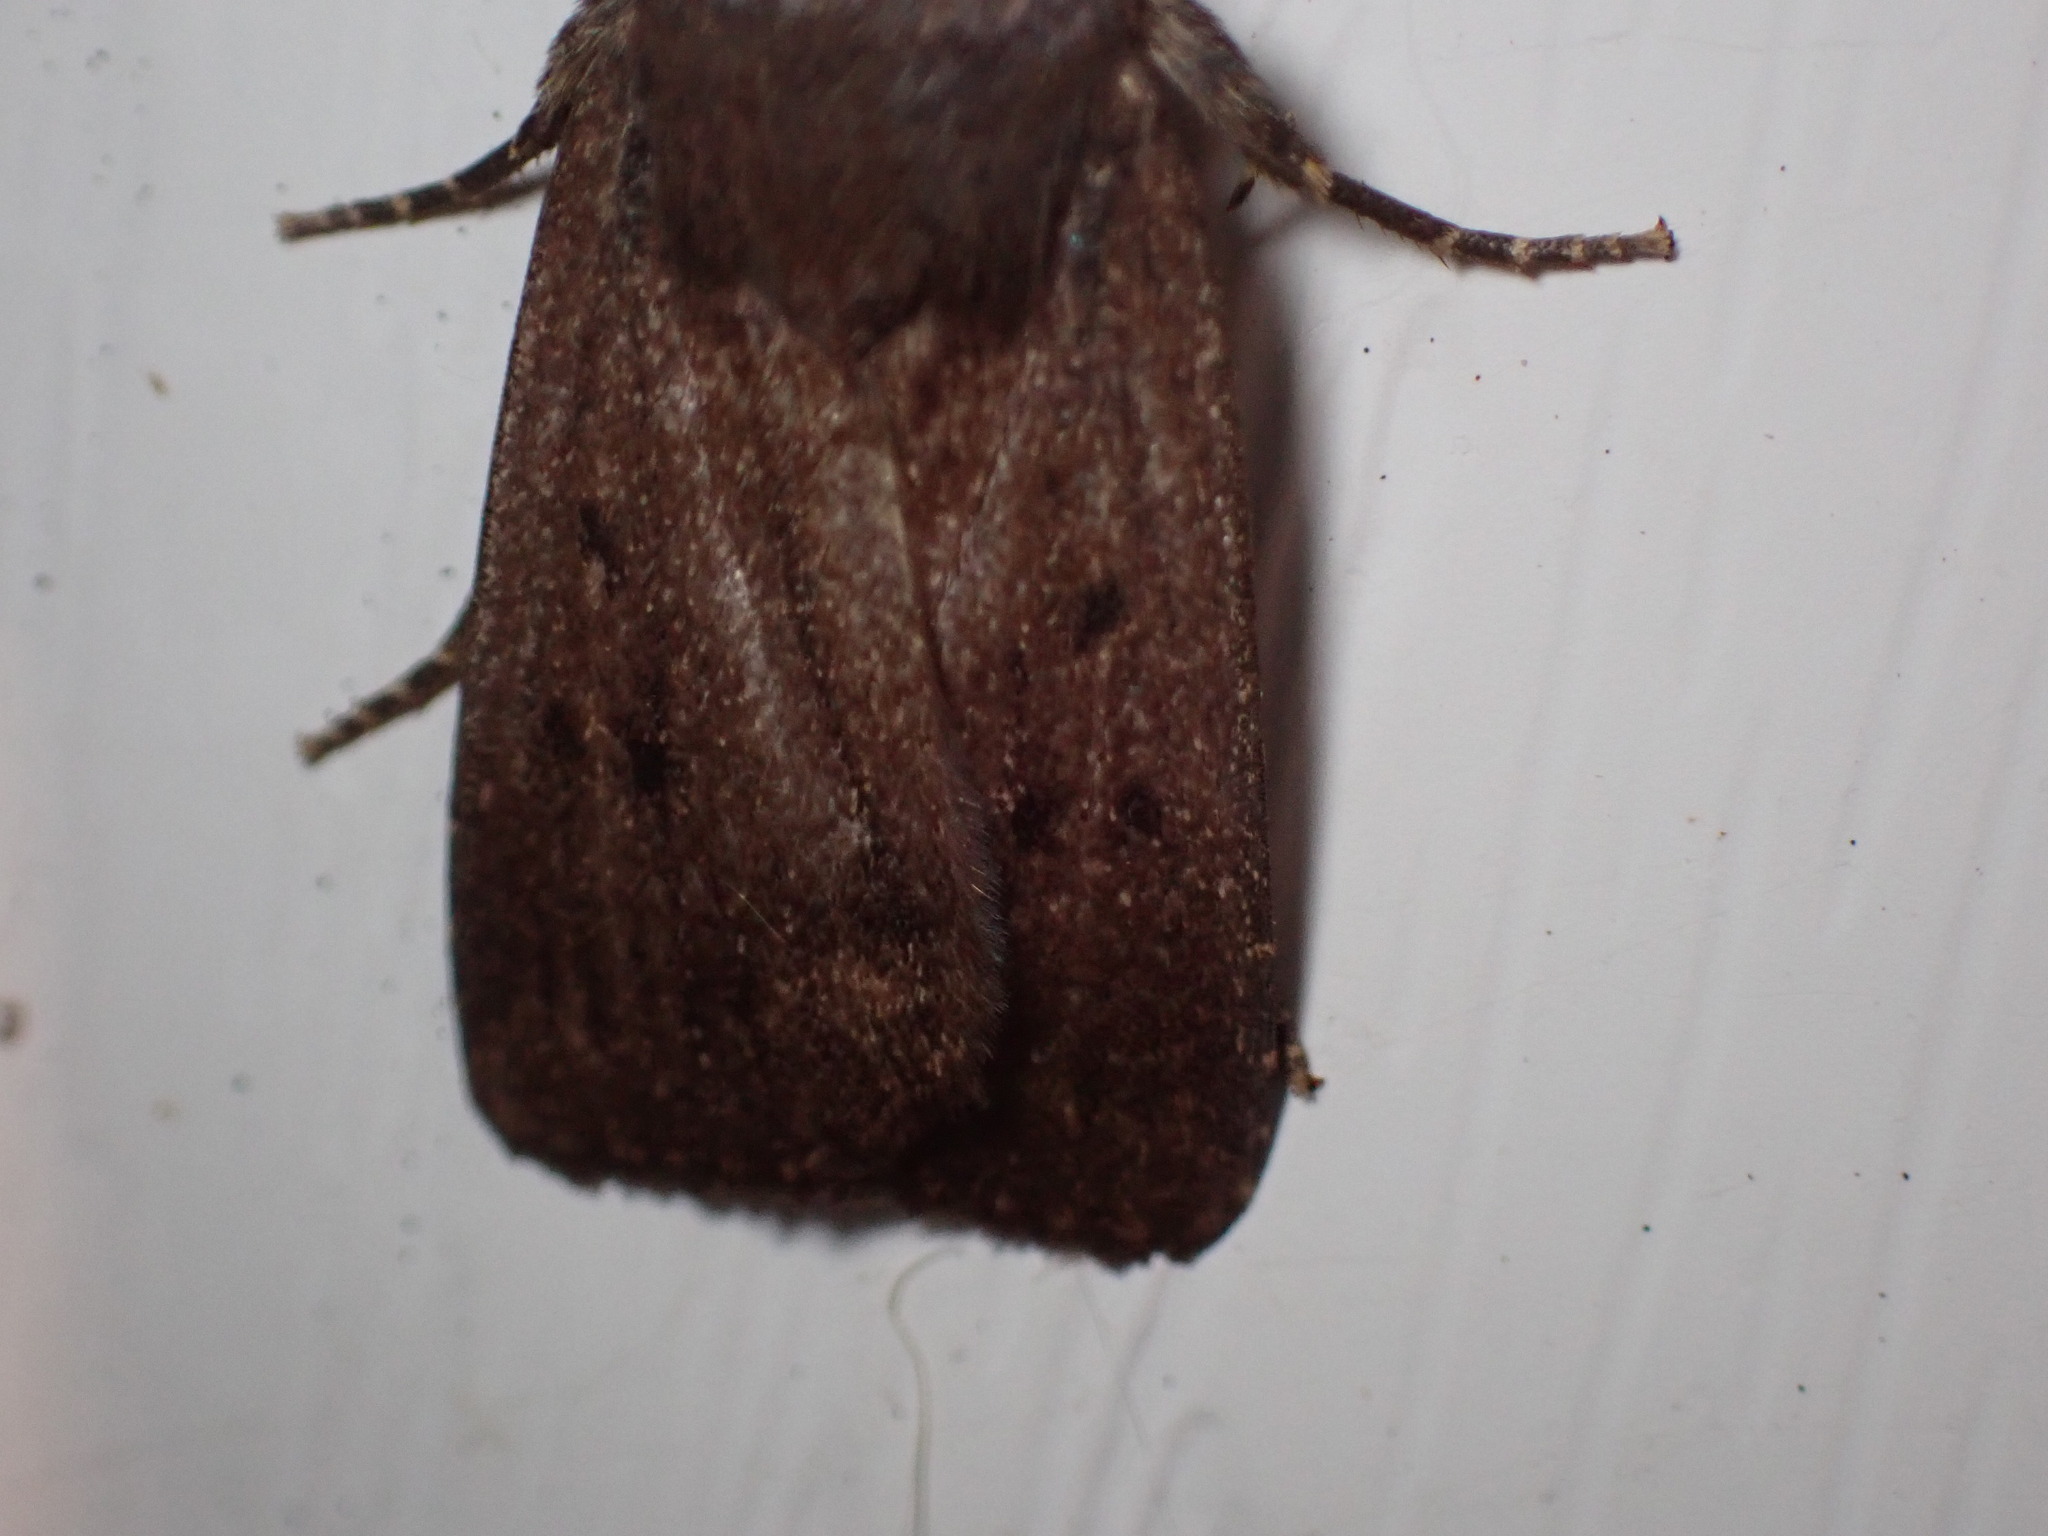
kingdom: Animalia
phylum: Arthropoda
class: Insecta
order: Lepidoptera
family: Noctuidae
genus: Amphipyra
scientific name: Amphipyra tragopoginis
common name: Mouse moth
